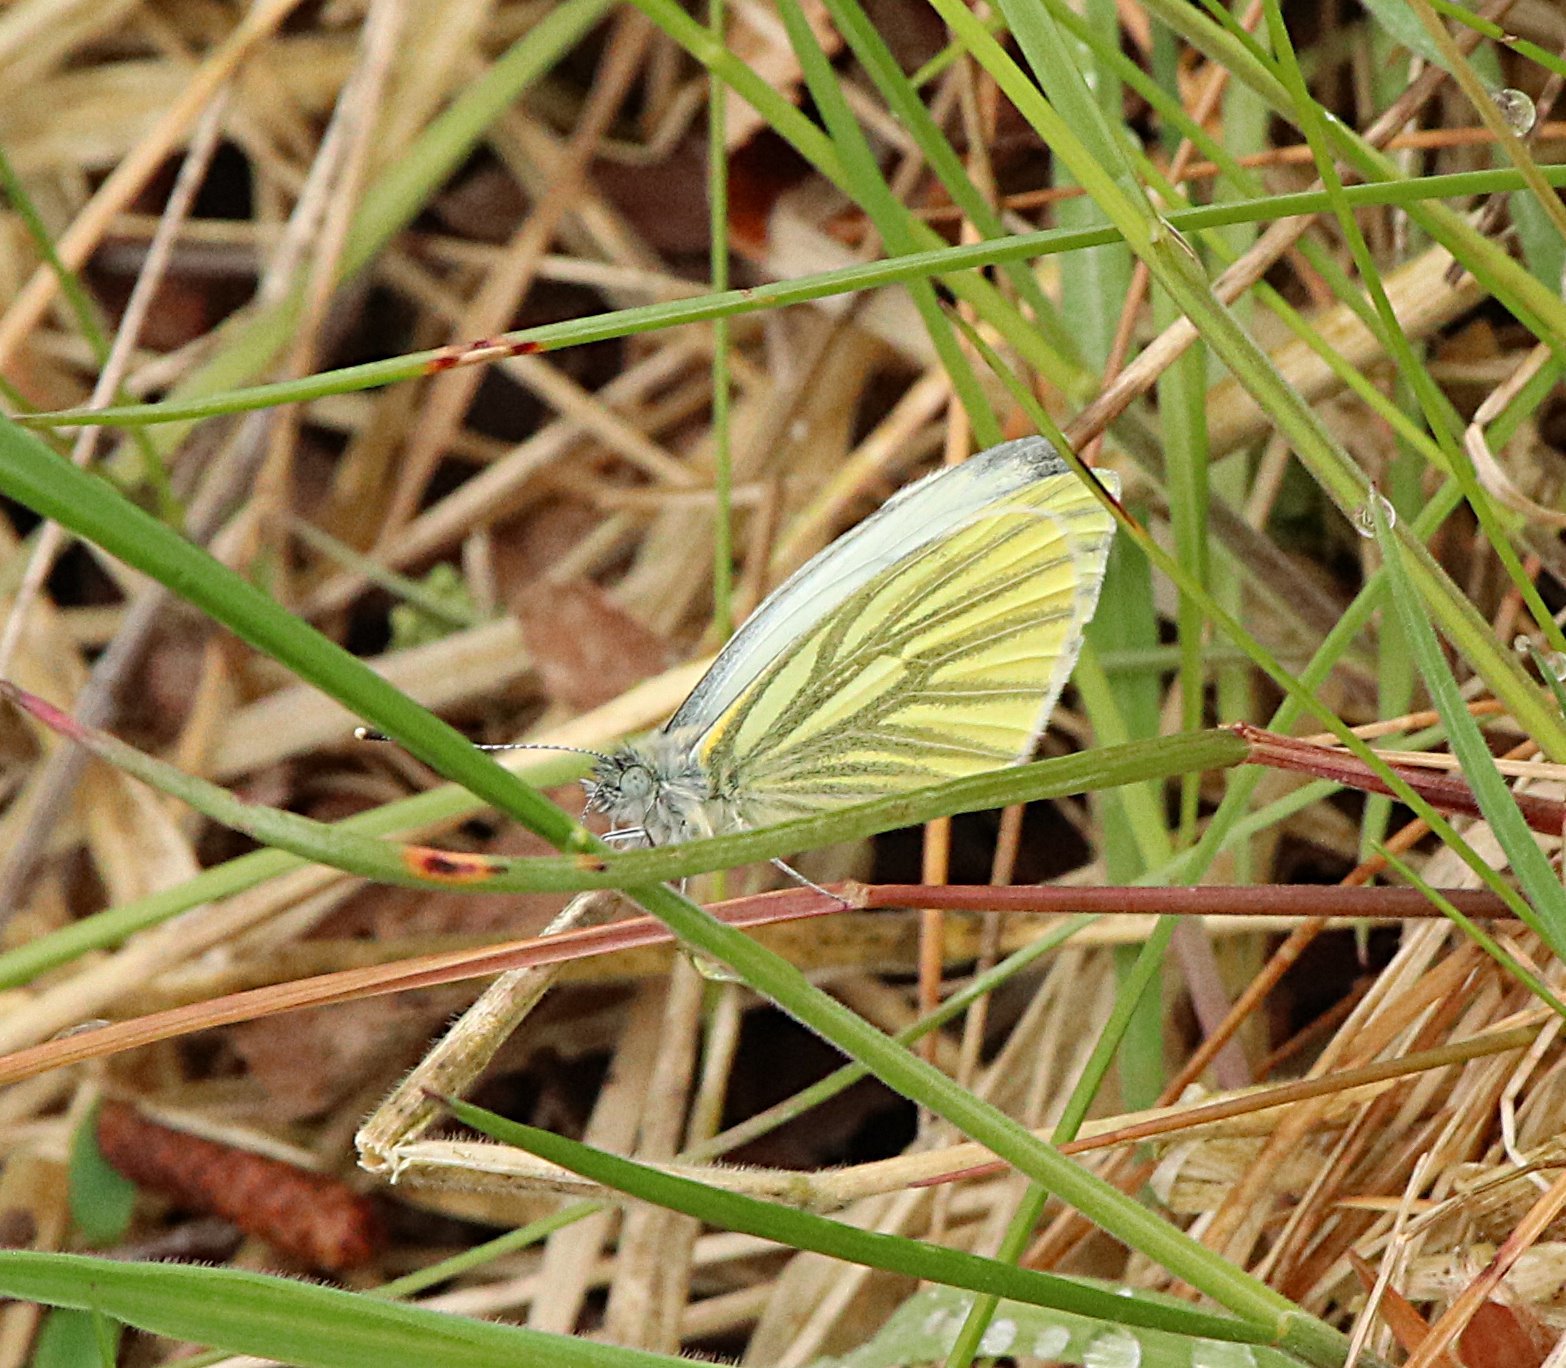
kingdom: Animalia
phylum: Arthropoda
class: Insecta
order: Lepidoptera
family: Pieridae
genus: Pieris
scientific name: Pieris napi
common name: Green-veined white
